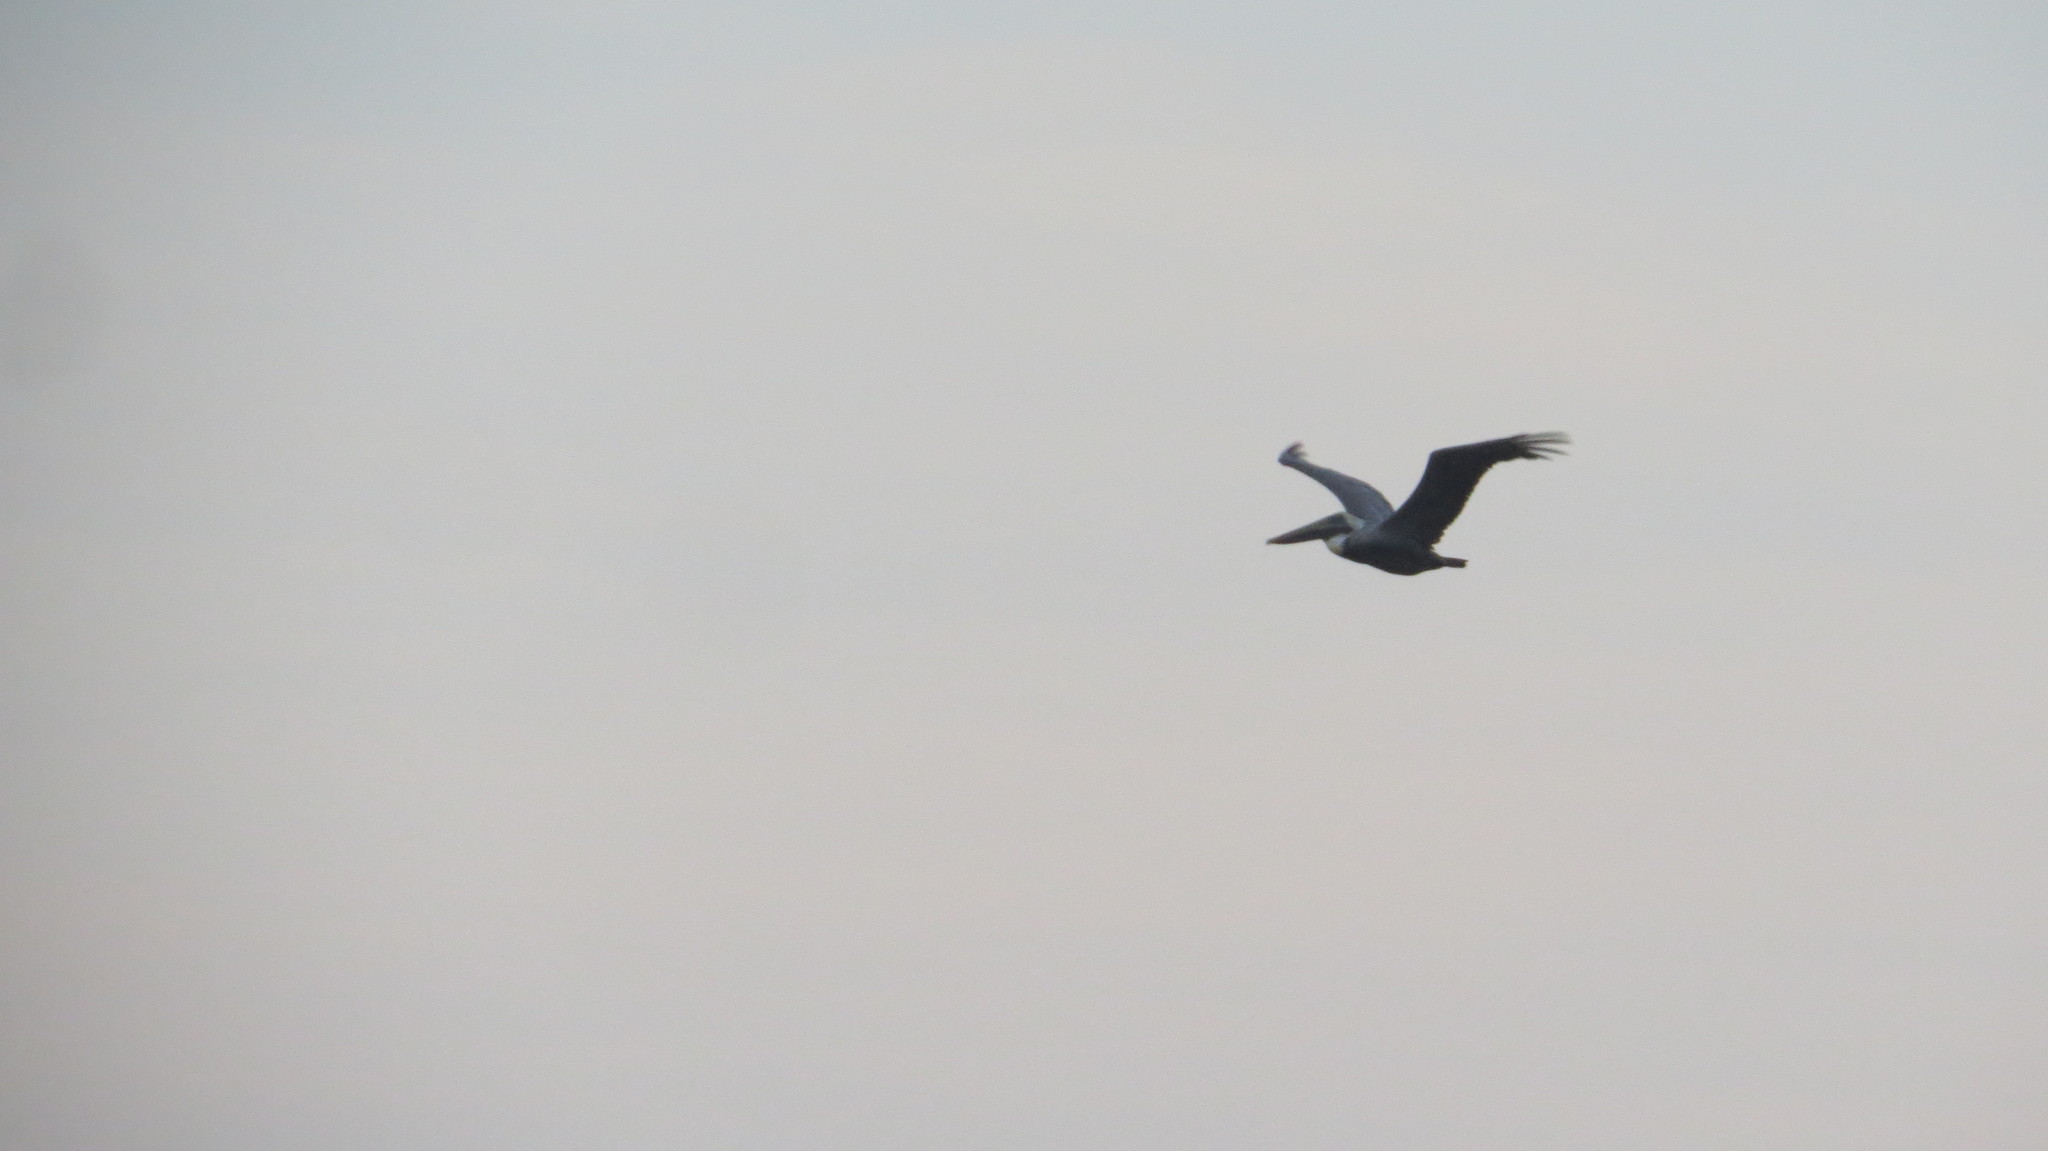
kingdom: Animalia
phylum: Chordata
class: Aves
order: Pelecaniformes
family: Pelecanidae
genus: Pelecanus
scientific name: Pelecanus occidentalis
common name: Brown pelican
